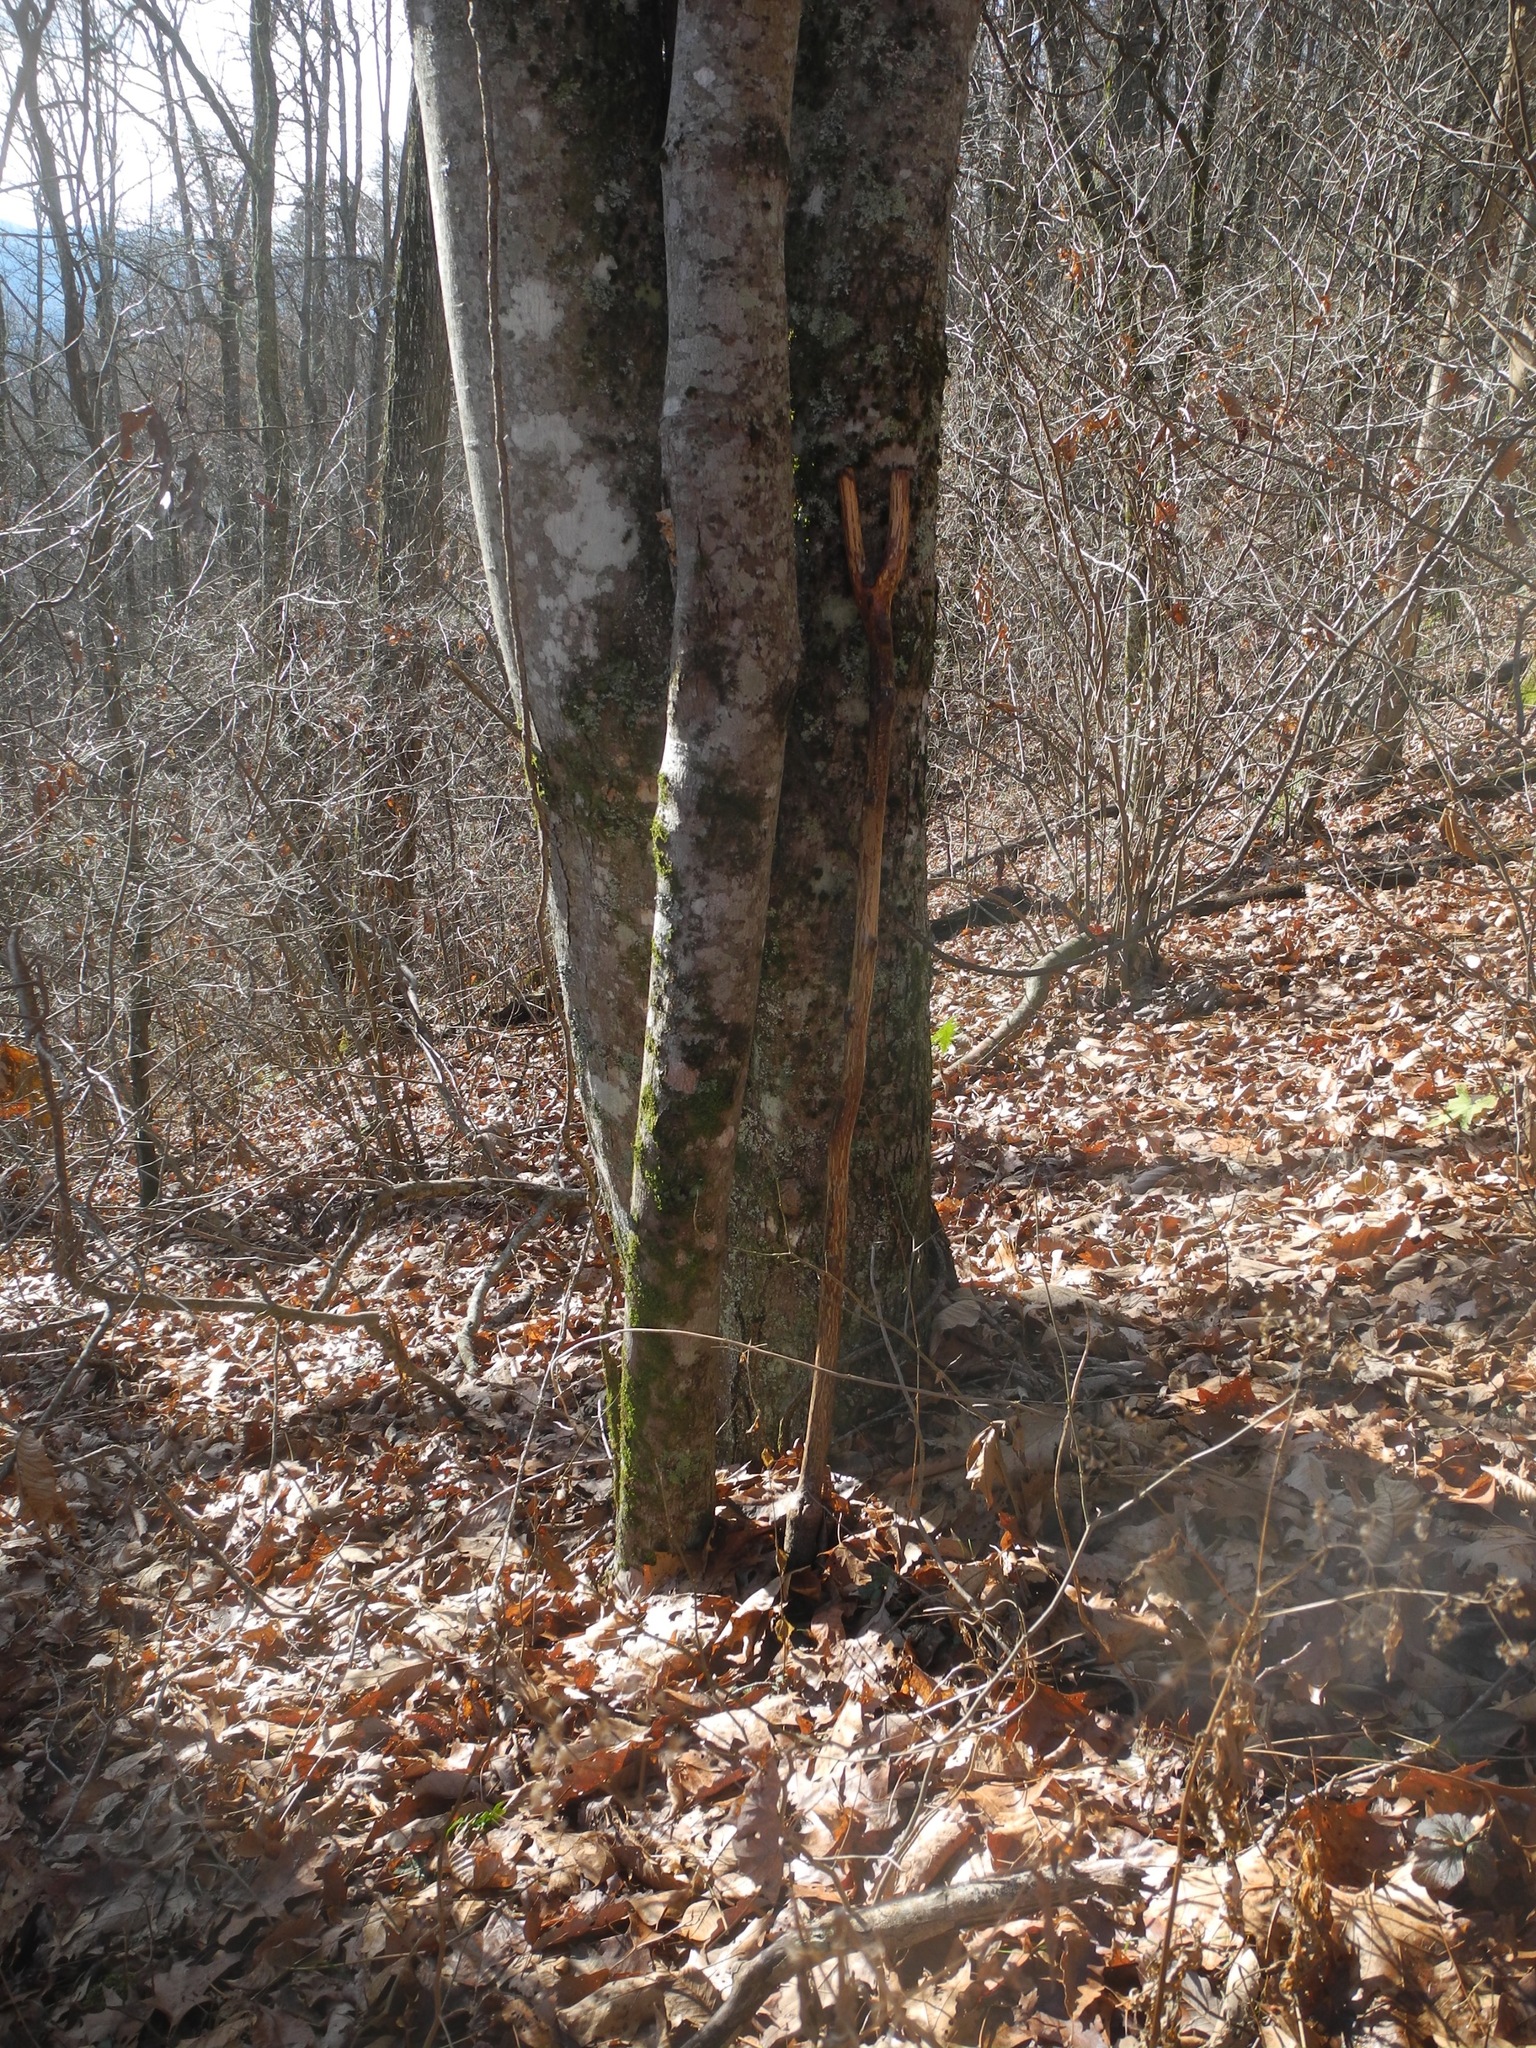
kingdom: Plantae
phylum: Tracheophyta
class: Magnoliopsida
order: Sapindales
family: Sapindaceae
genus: Acer
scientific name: Acer freemanii
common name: Freeman maple
